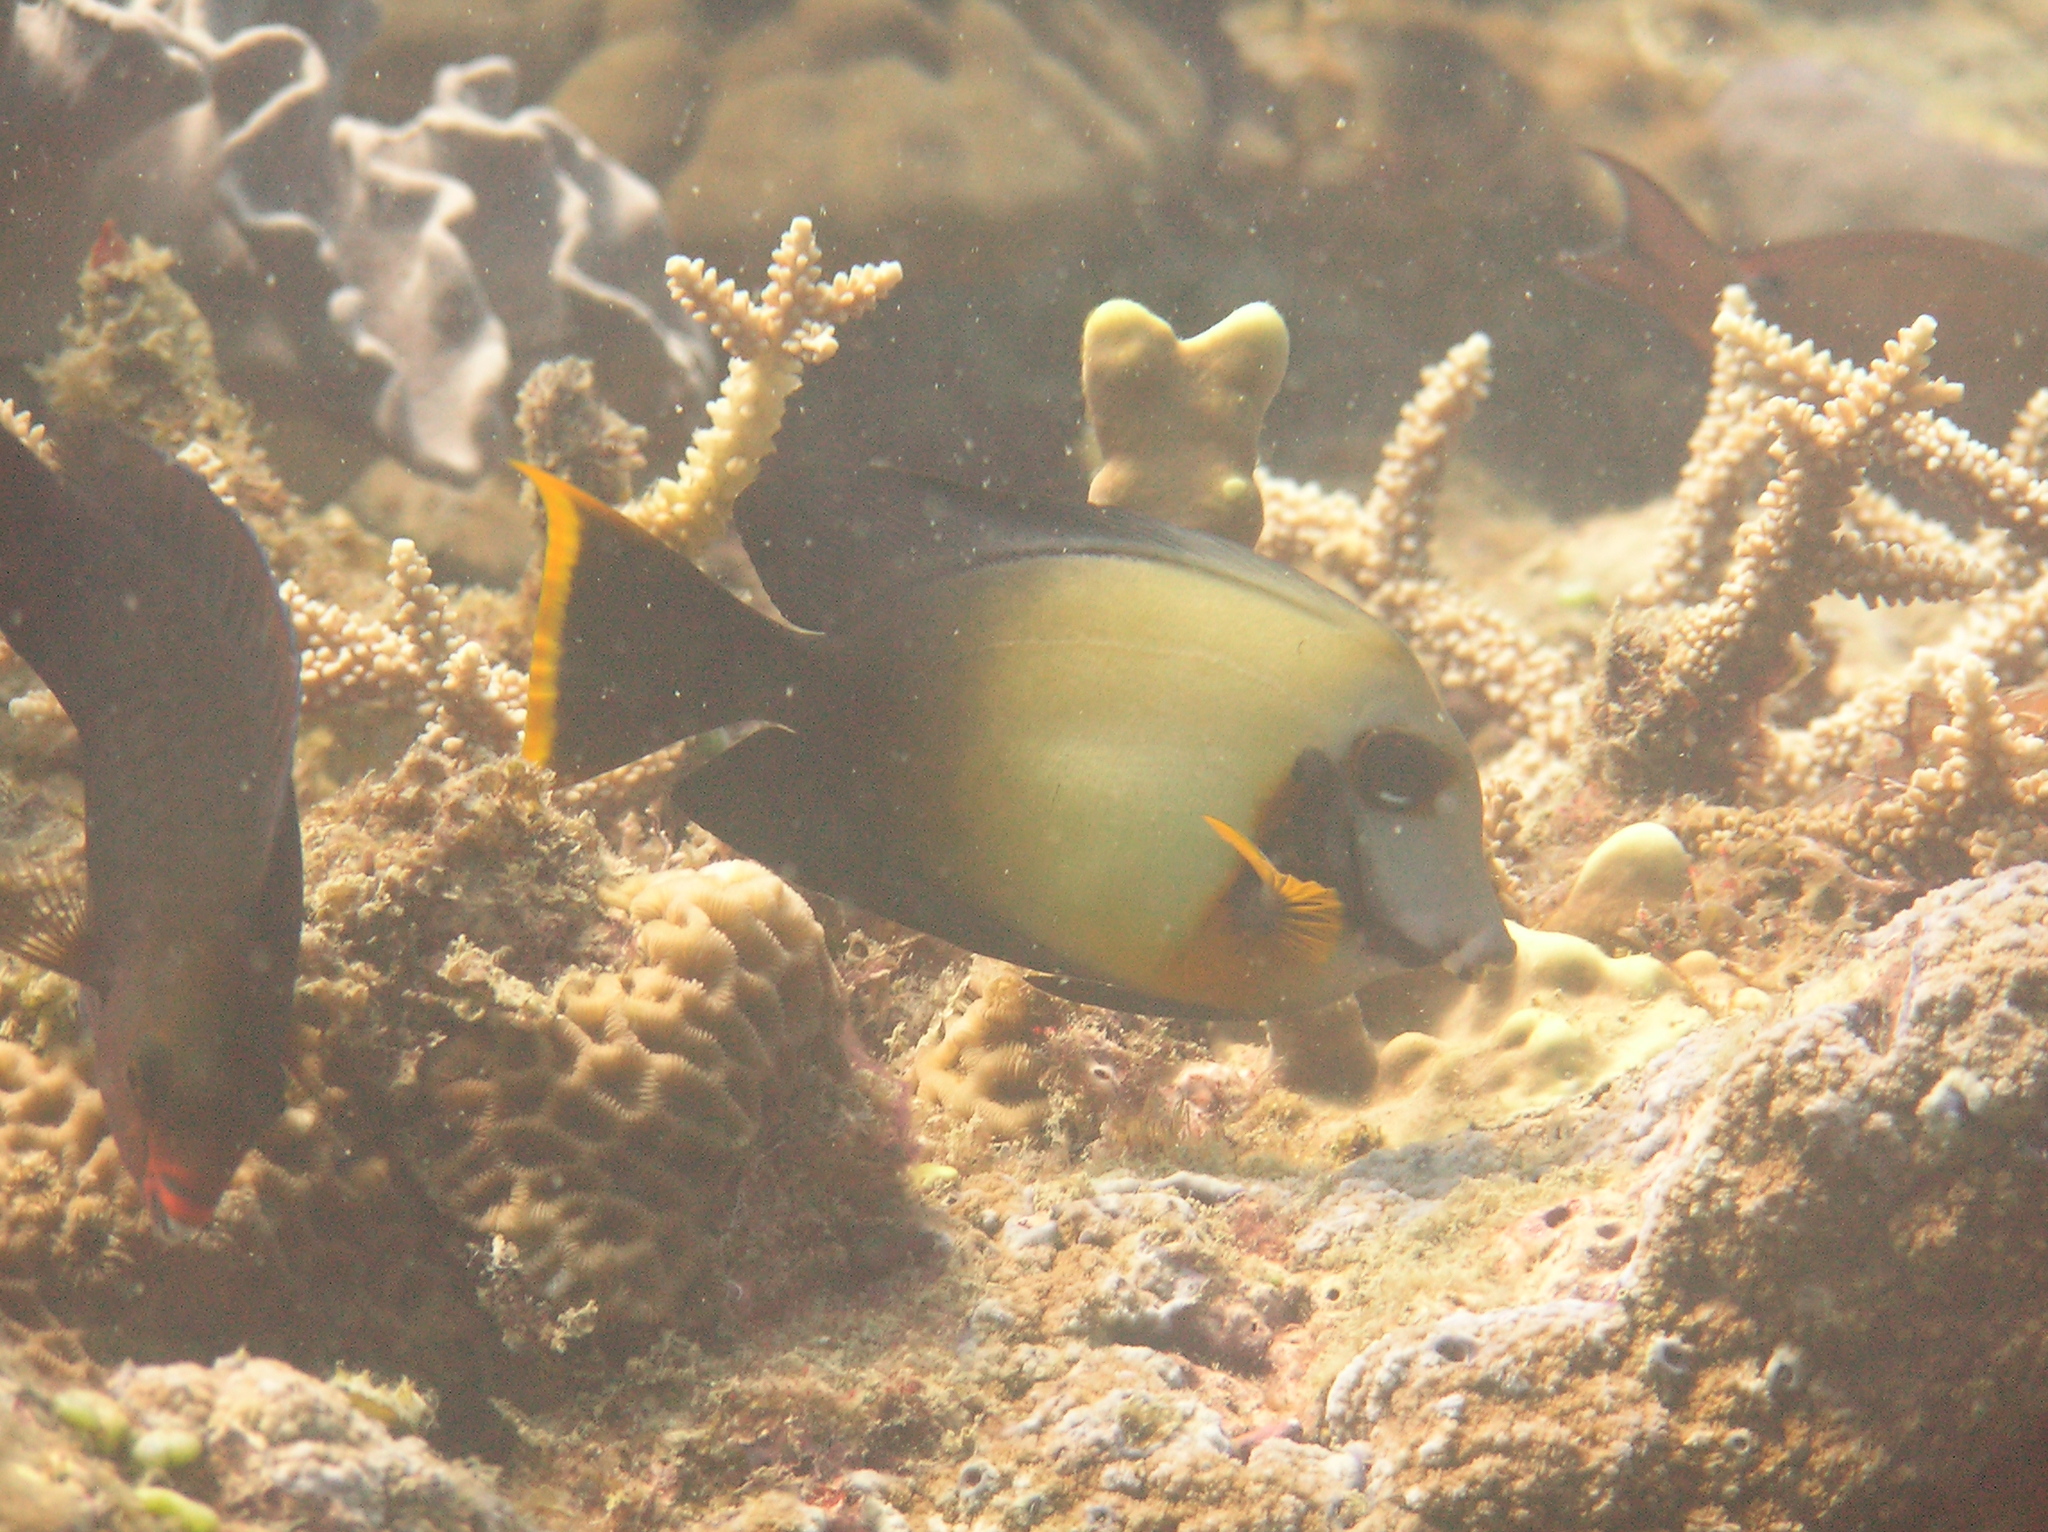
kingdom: Animalia
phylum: Chordata
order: Perciformes
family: Acanthuridae
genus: Acanthurus
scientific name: Acanthurus pyroferus
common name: Chocolate surgeonfish
